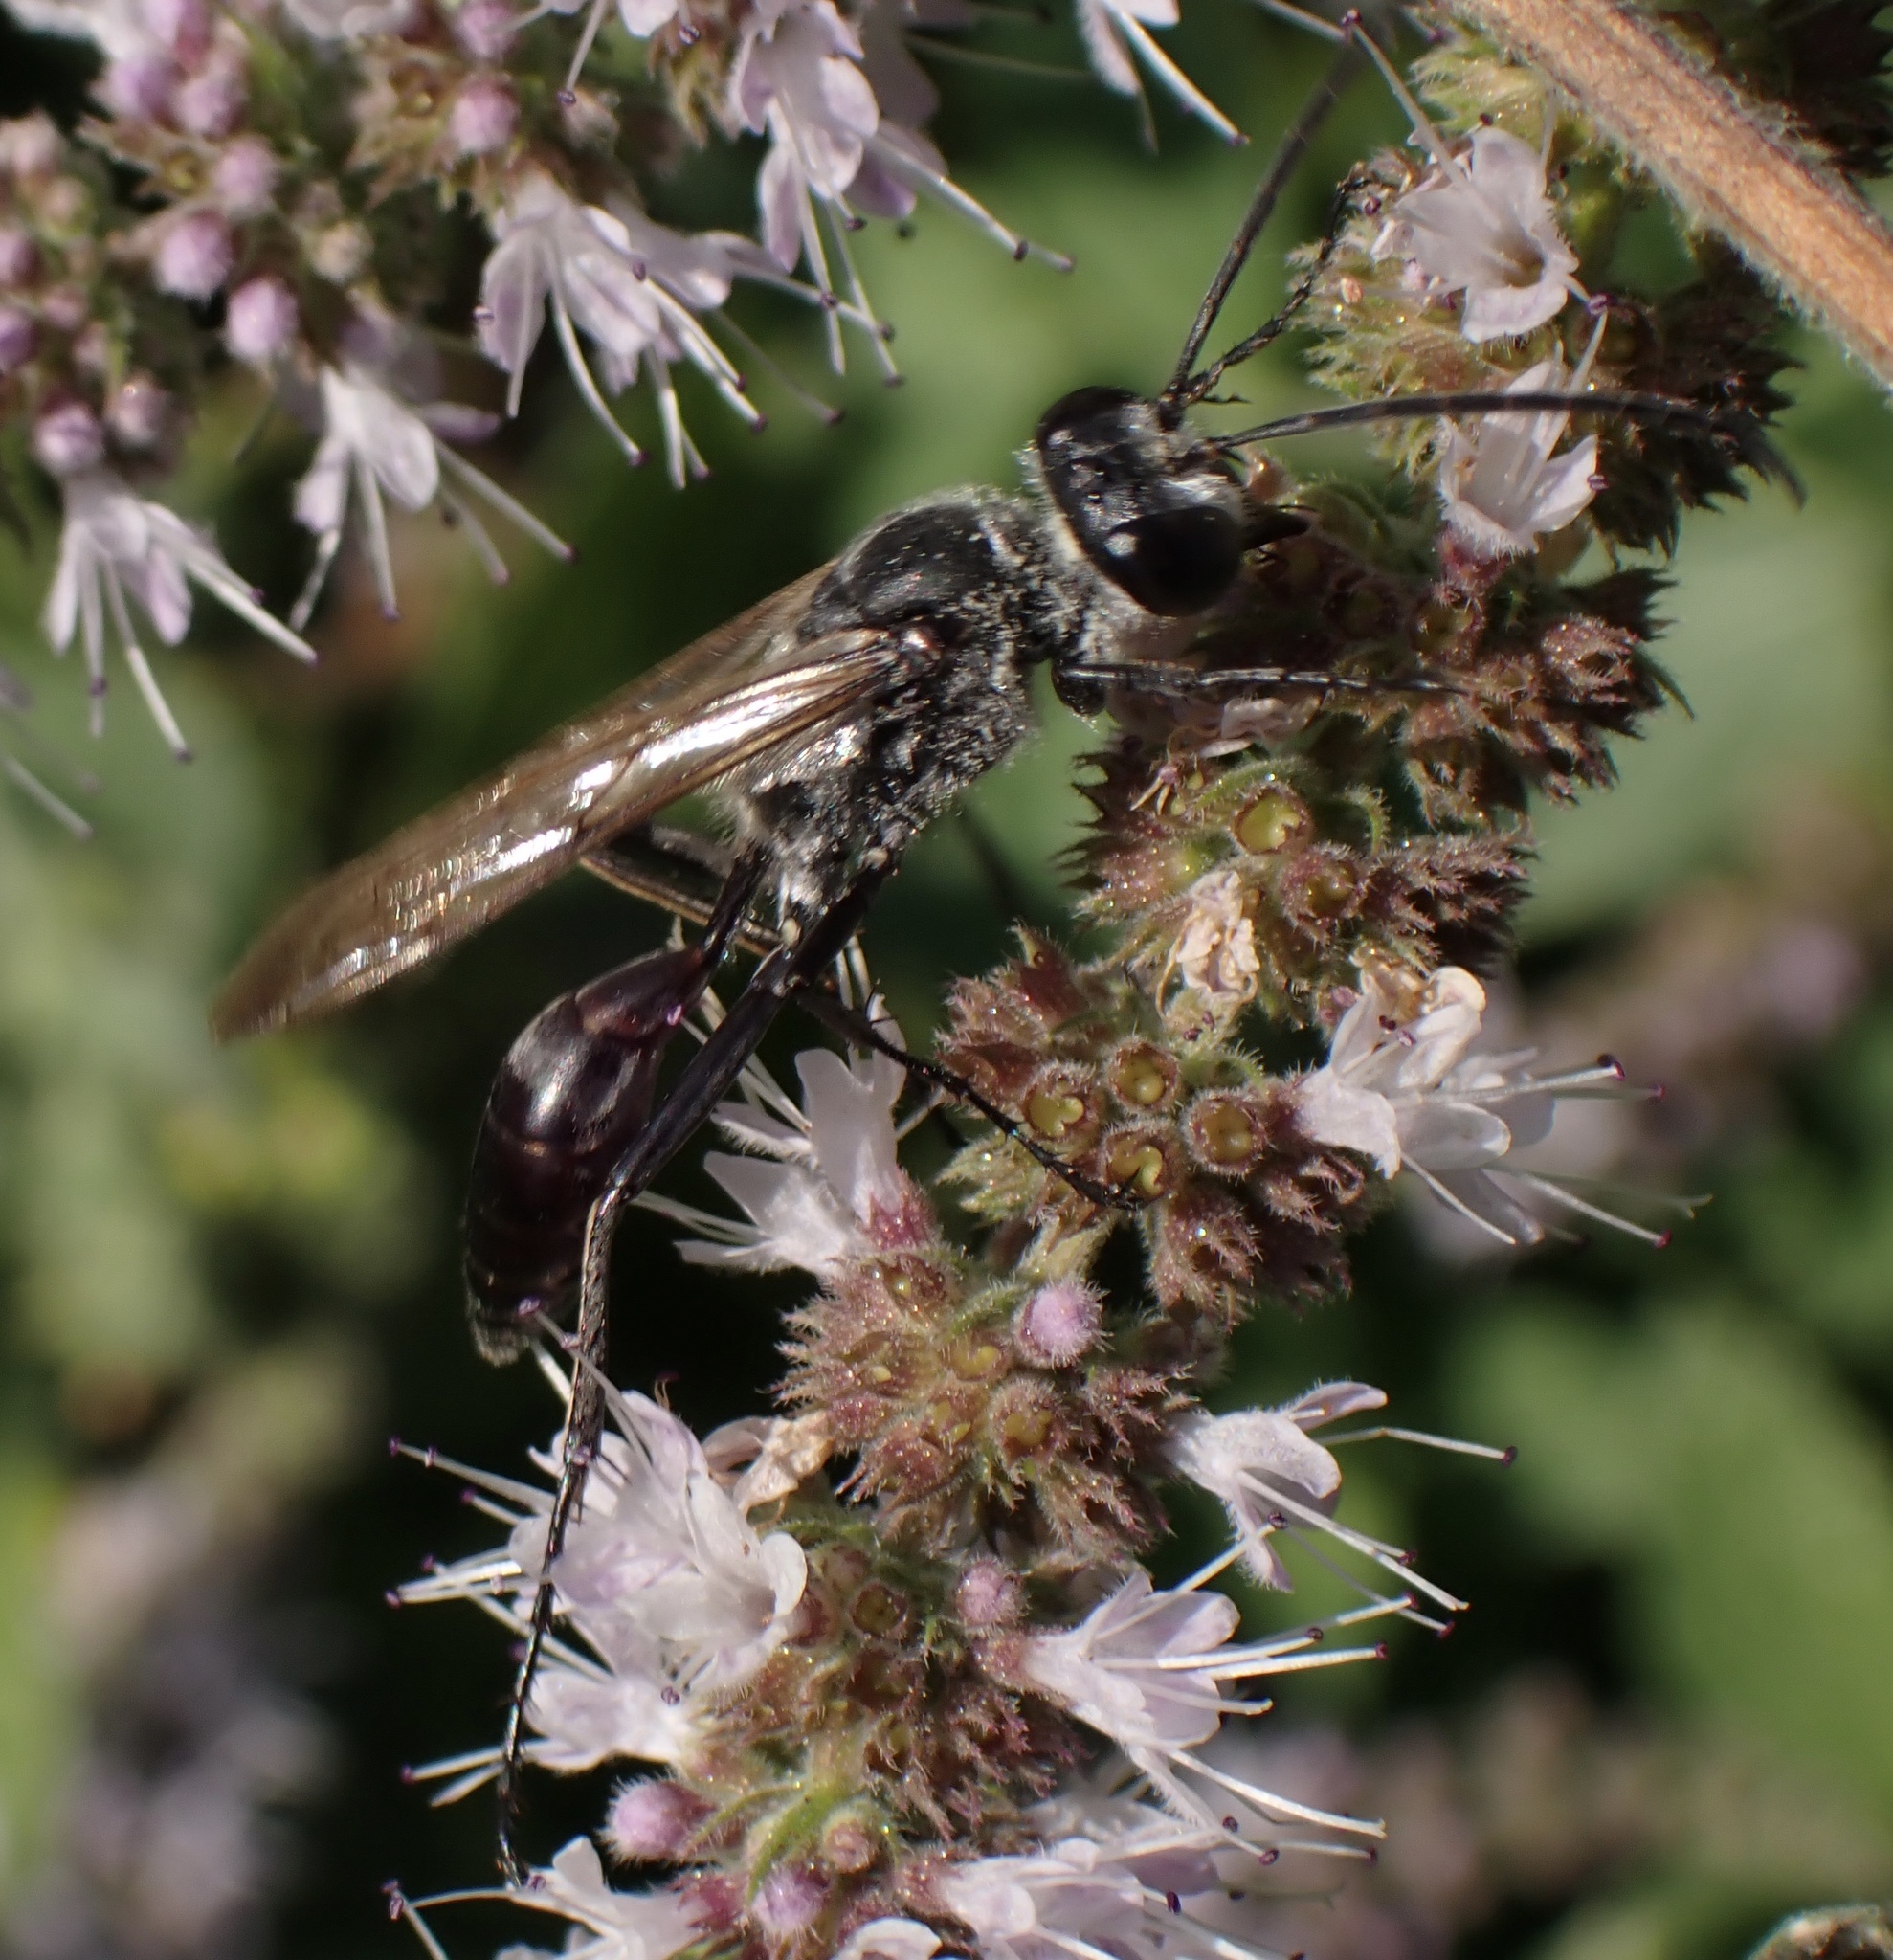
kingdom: Animalia
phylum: Arthropoda
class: Insecta
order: Hymenoptera
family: Sphecidae
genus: Sphex
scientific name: Sphex pruinosus
